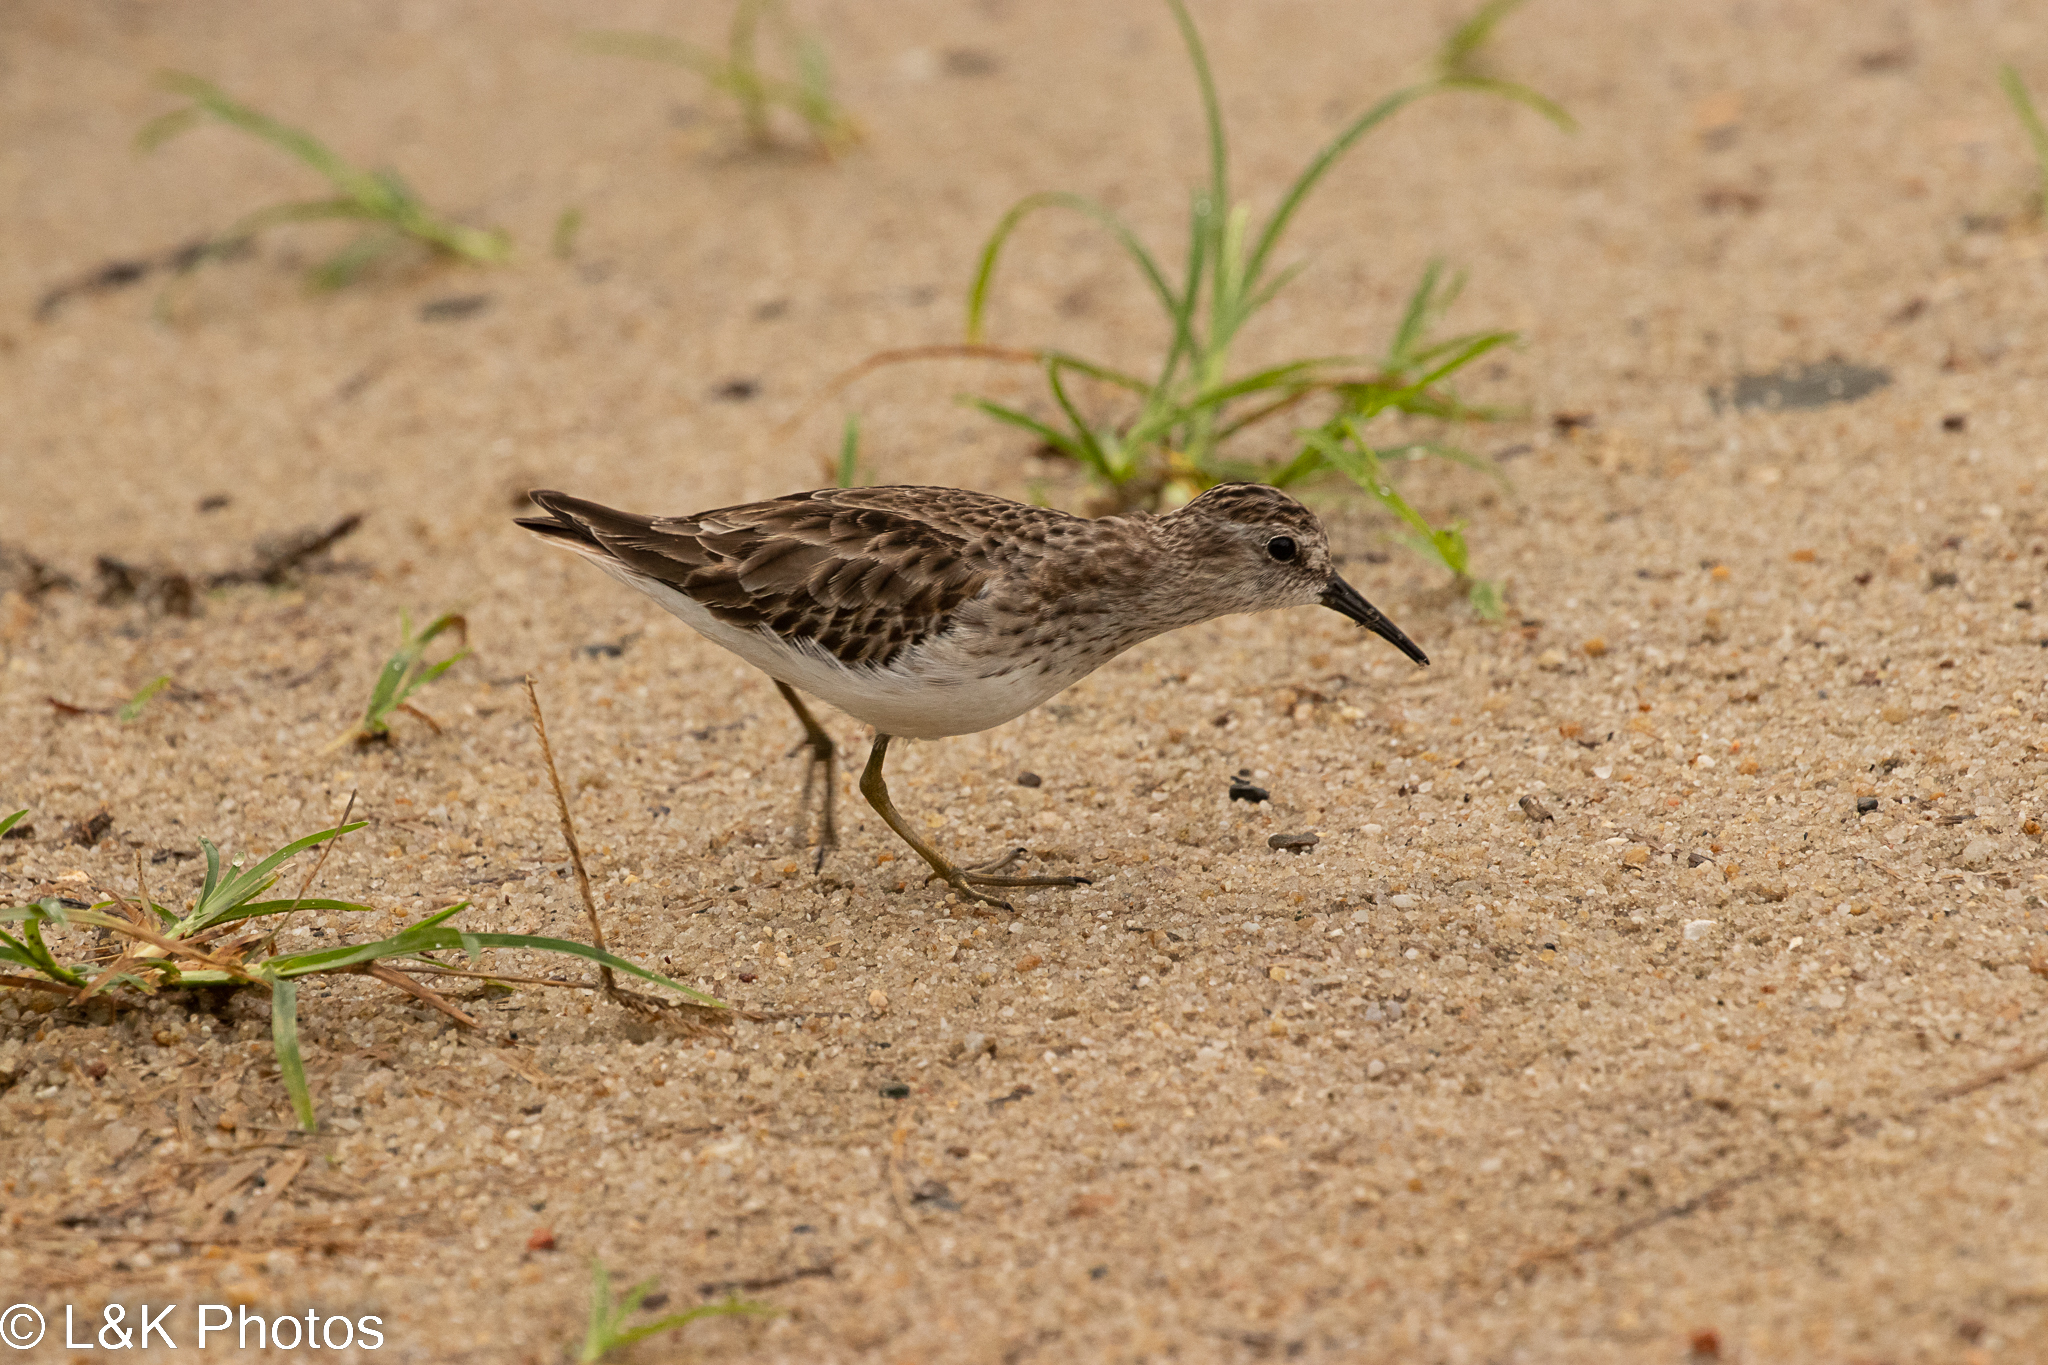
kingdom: Animalia
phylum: Chordata
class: Aves
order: Charadriiformes
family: Scolopacidae
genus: Calidris
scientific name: Calidris minutilla
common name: Least sandpiper
